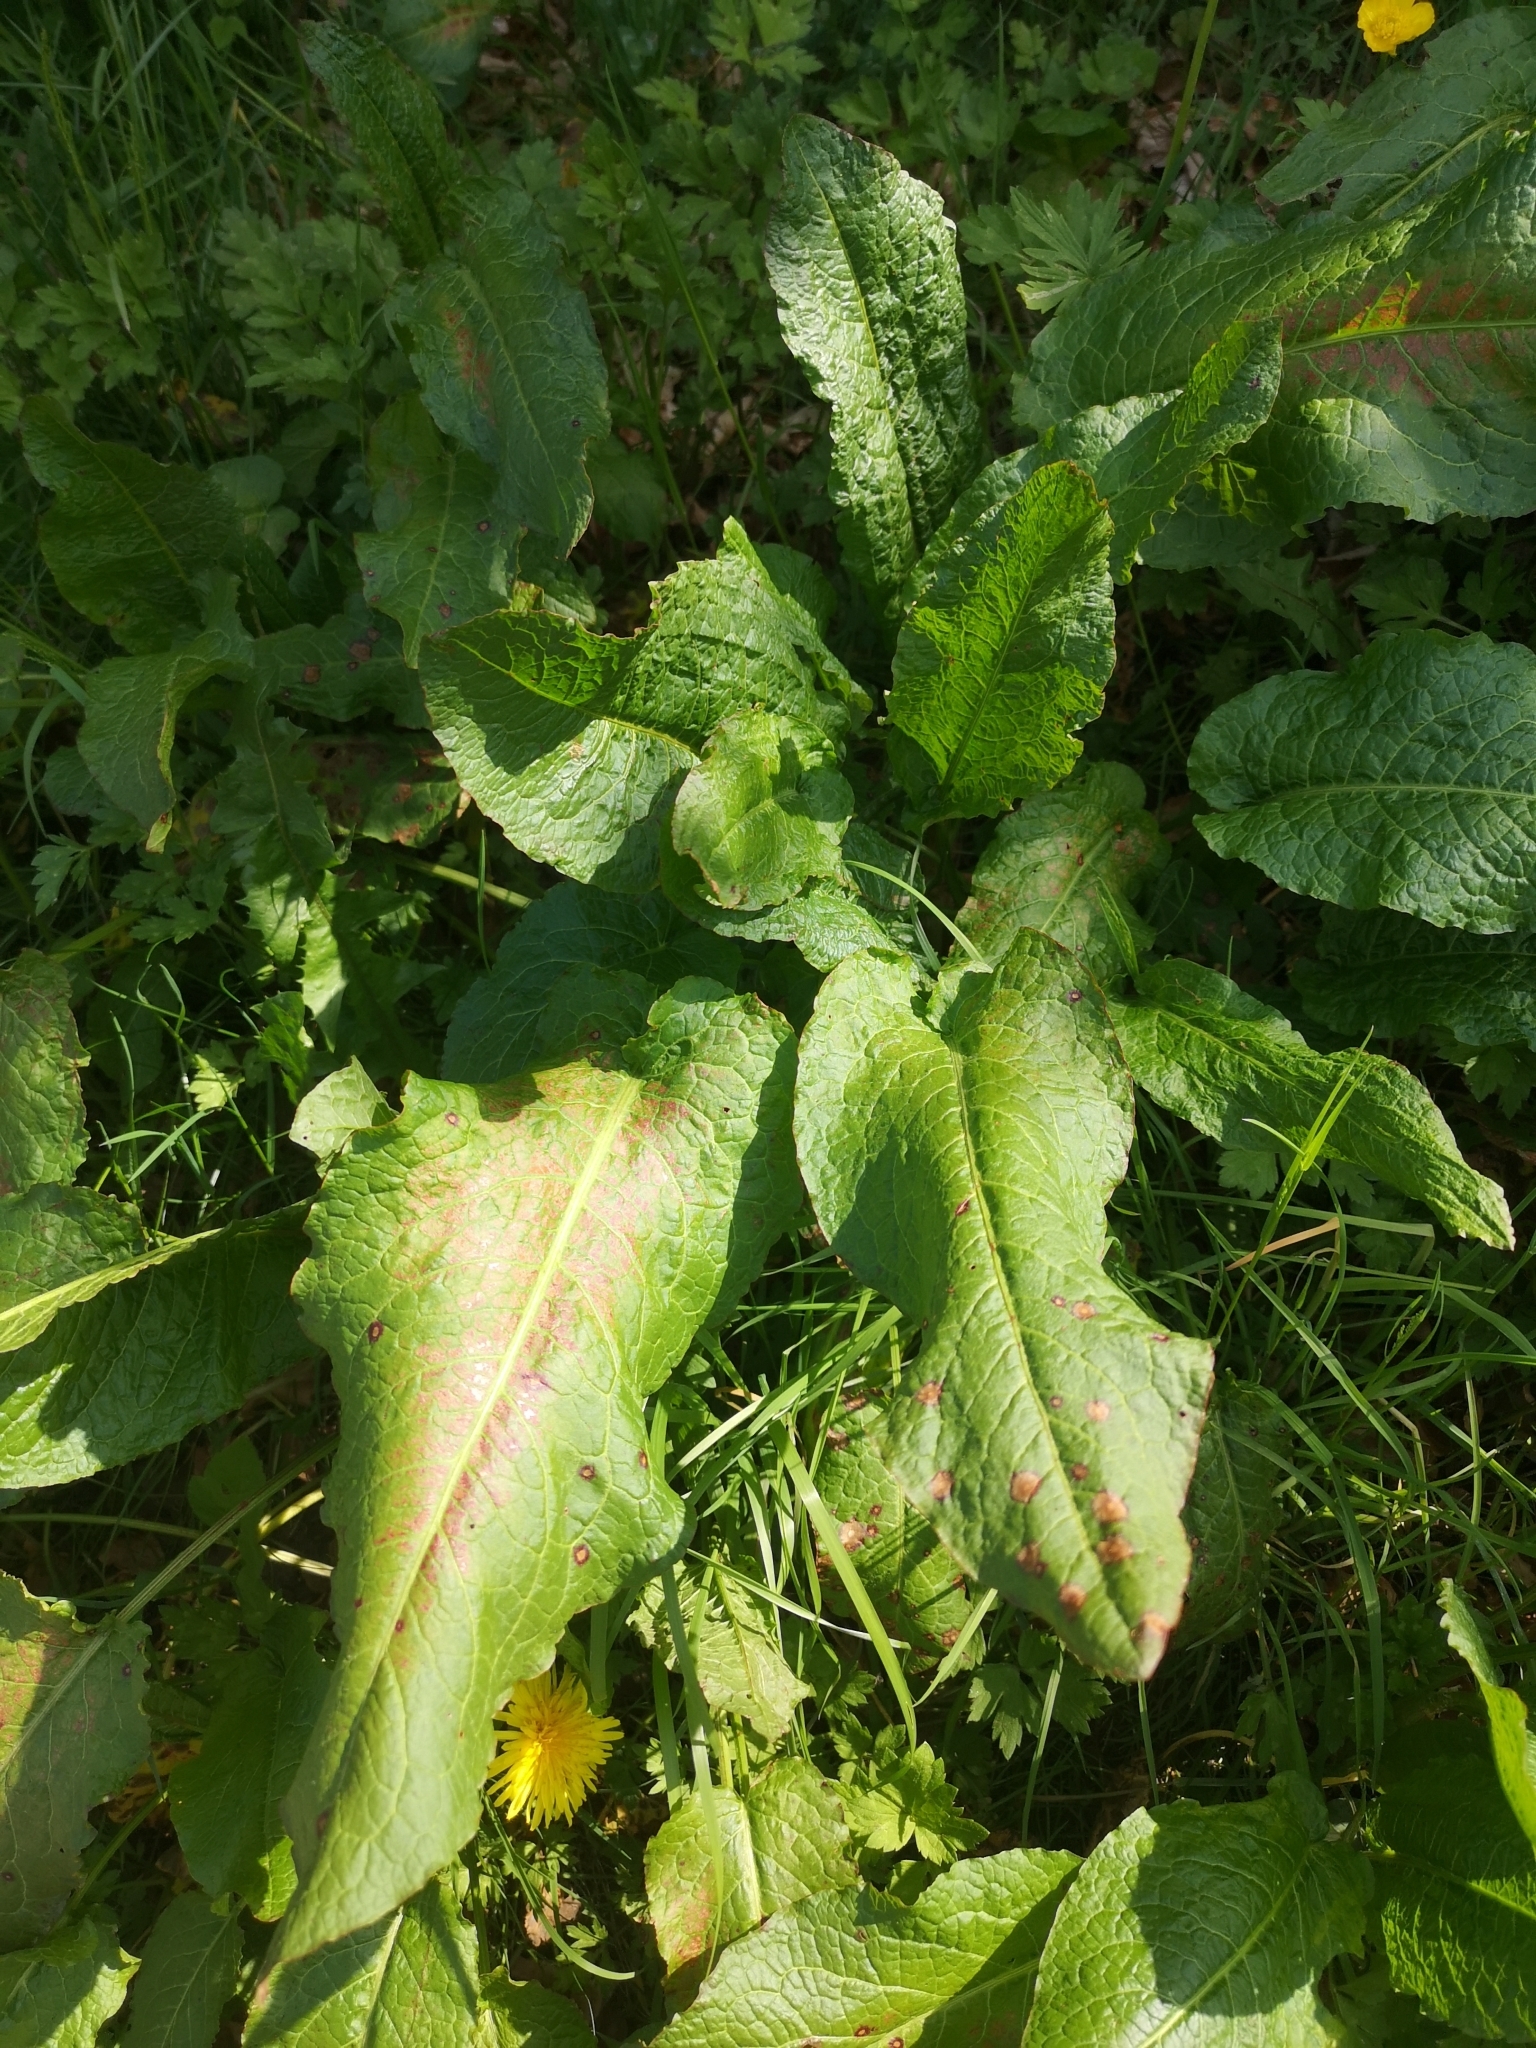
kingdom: Plantae
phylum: Tracheophyta
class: Magnoliopsida
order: Caryophyllales
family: Polygonaceae
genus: Rumex
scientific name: Rumex obtusifolius
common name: Bitter dock
